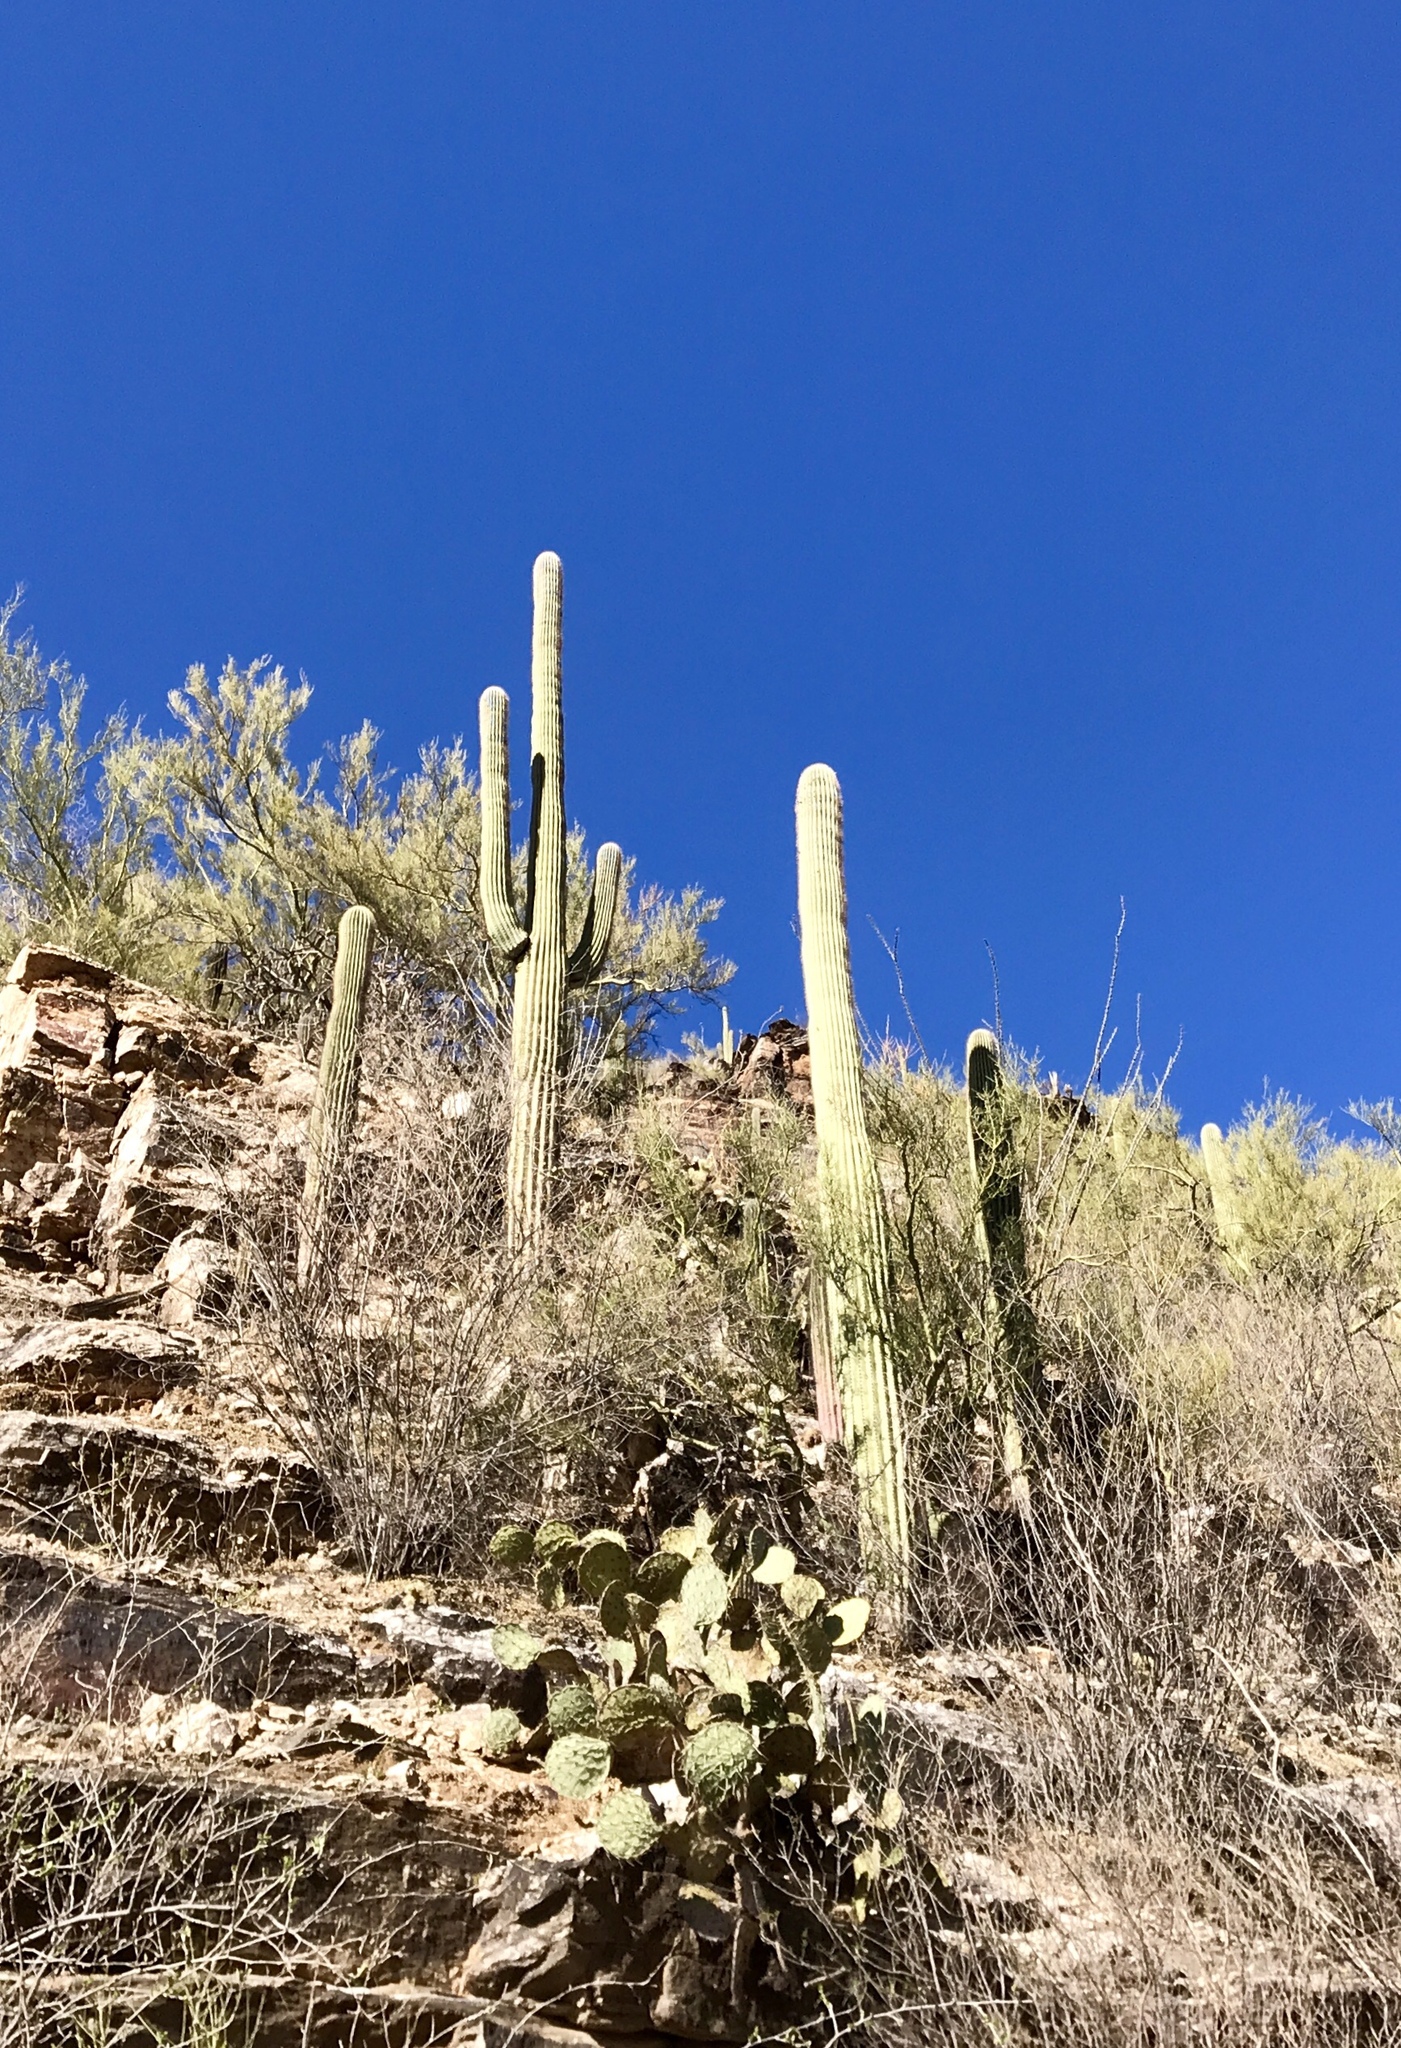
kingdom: Plantae
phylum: Tracheophyta
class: Magnoliopsida
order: Caryophyllales
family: Cactaceae
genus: Carnegiea
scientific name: Carnegiea gigantea
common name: Saguaro
